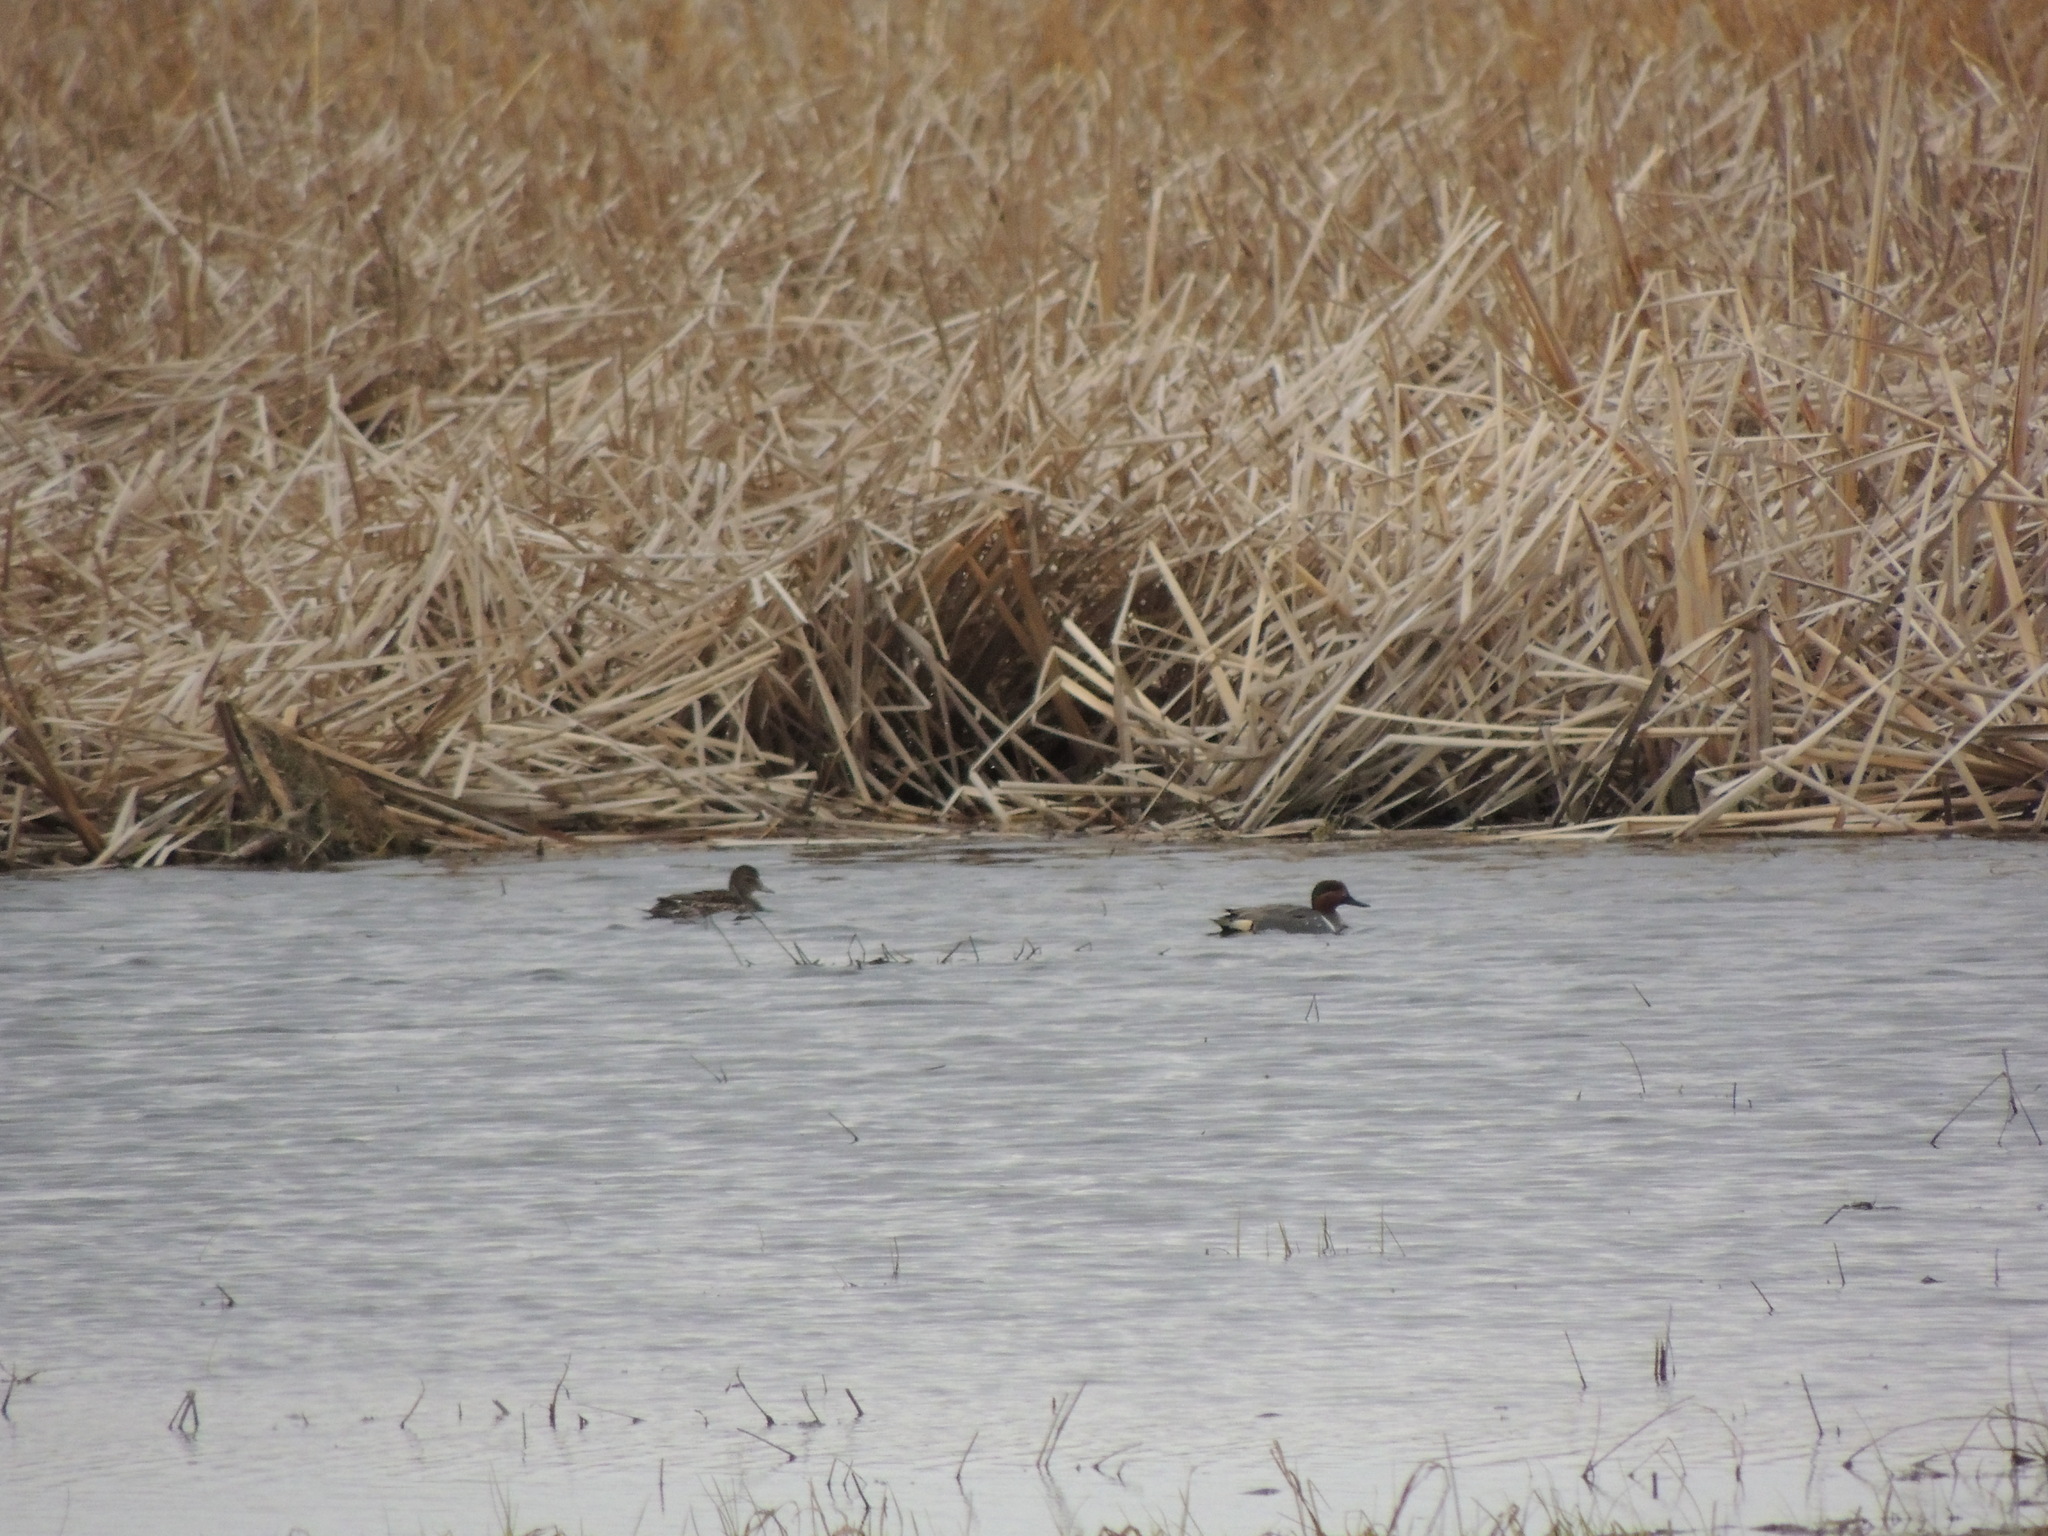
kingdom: Animalia
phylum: Chordata
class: Aves
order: Anseriformes
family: Anatidae
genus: Anas
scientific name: Anas crecca
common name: Eurasian teal
